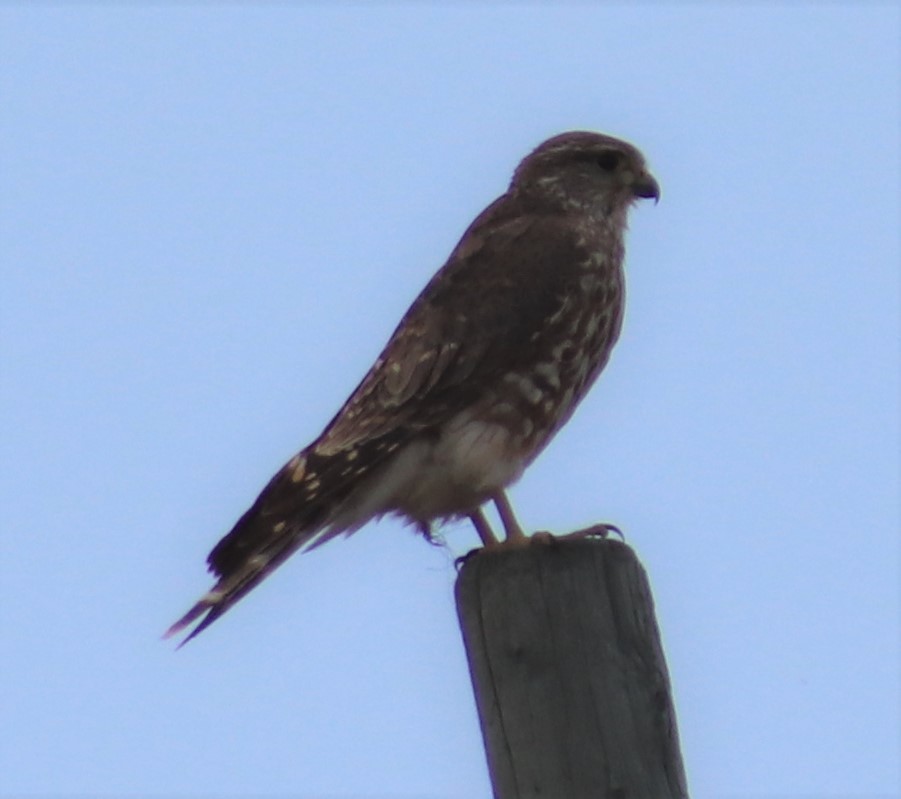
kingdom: Animalia
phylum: Chordata
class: Aves
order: Falconiformes
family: Falconidae
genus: Falco
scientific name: Falco columbarius
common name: Merlin
